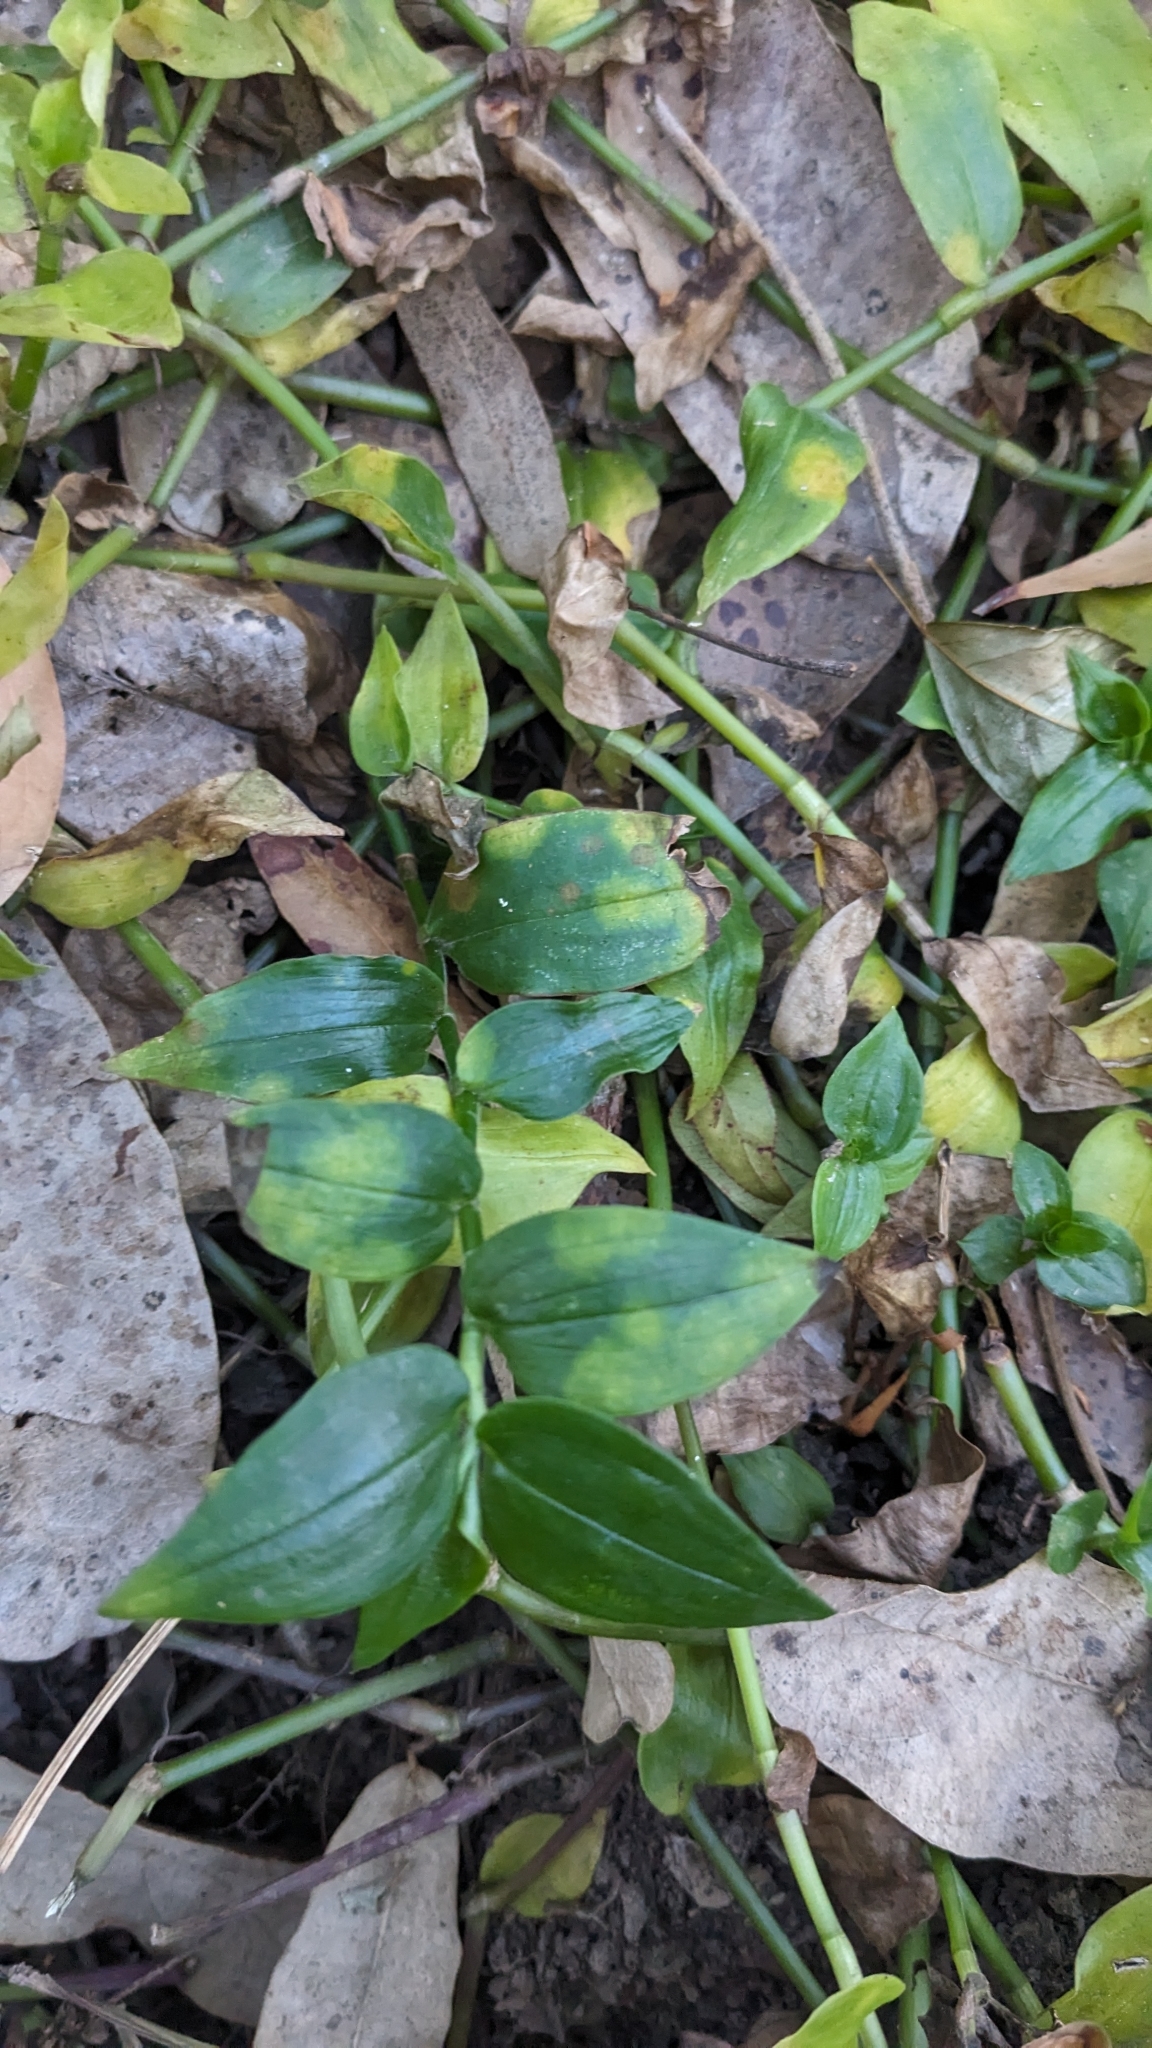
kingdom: Fungi
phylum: Basidiomycota
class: Exobasidiomycetes
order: Exobasidiales
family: Brachybasidiaceae
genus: Kordyana
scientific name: Kordyana brasiliensis
